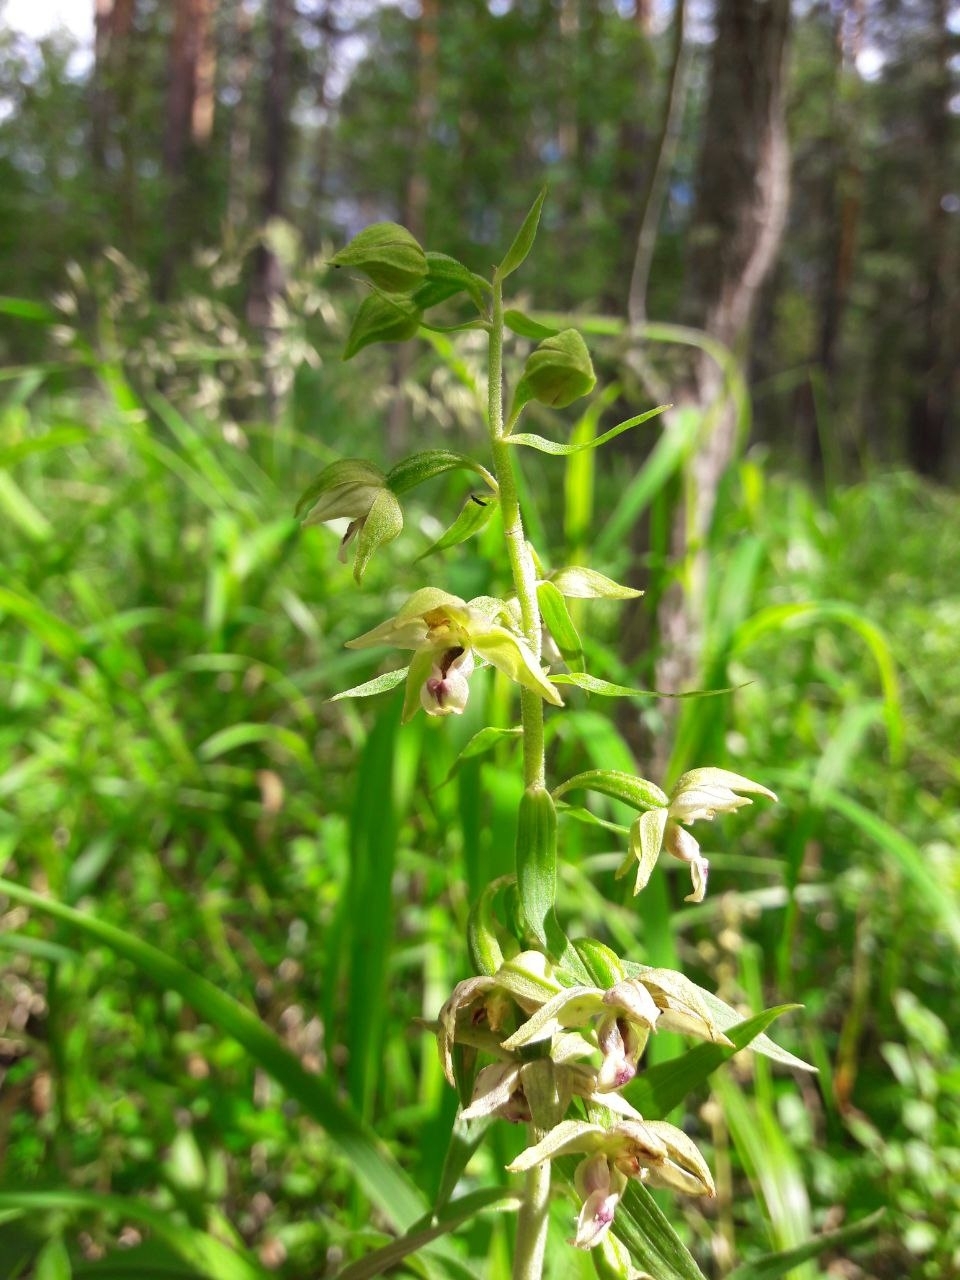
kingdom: Plantae
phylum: Tracheophyta
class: Liliopsida
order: Asparagales
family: Orchidaceae
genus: Epipactis
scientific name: Epipactis helleborine
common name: Broad-leaved helleborine
